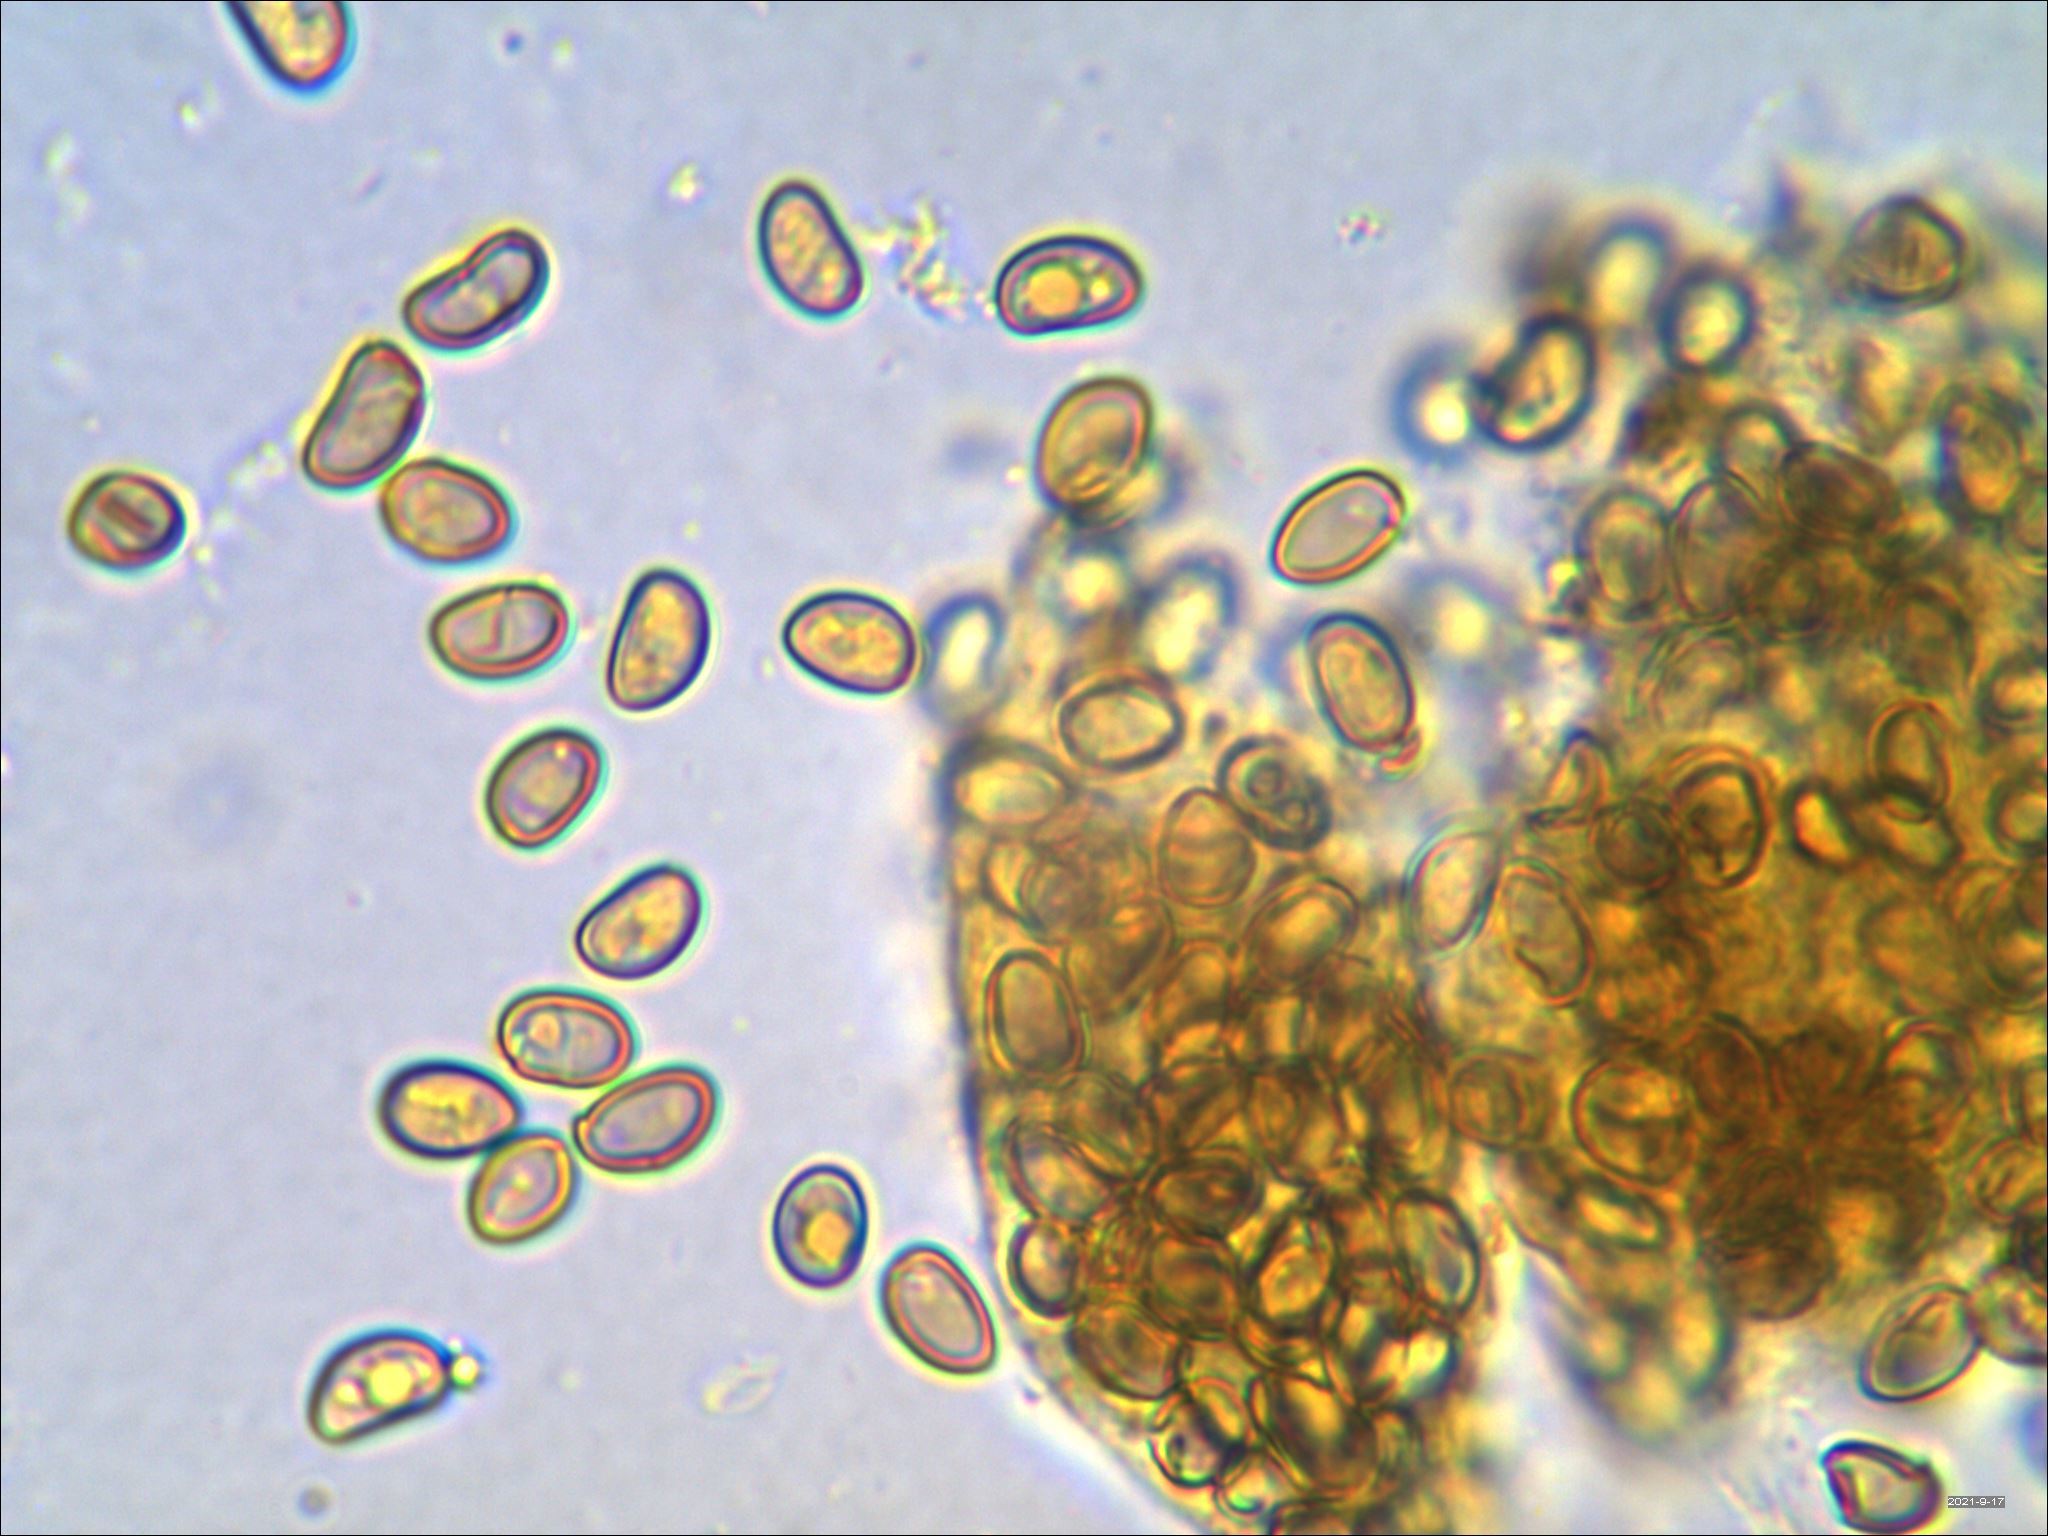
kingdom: Fungi
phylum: Basidiomycota
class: Agaricomycetes
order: Agaricales
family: Tubariaceae
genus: Flammulaster
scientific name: Flammulaster erinaceellus
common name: Powder-scale pholiota
